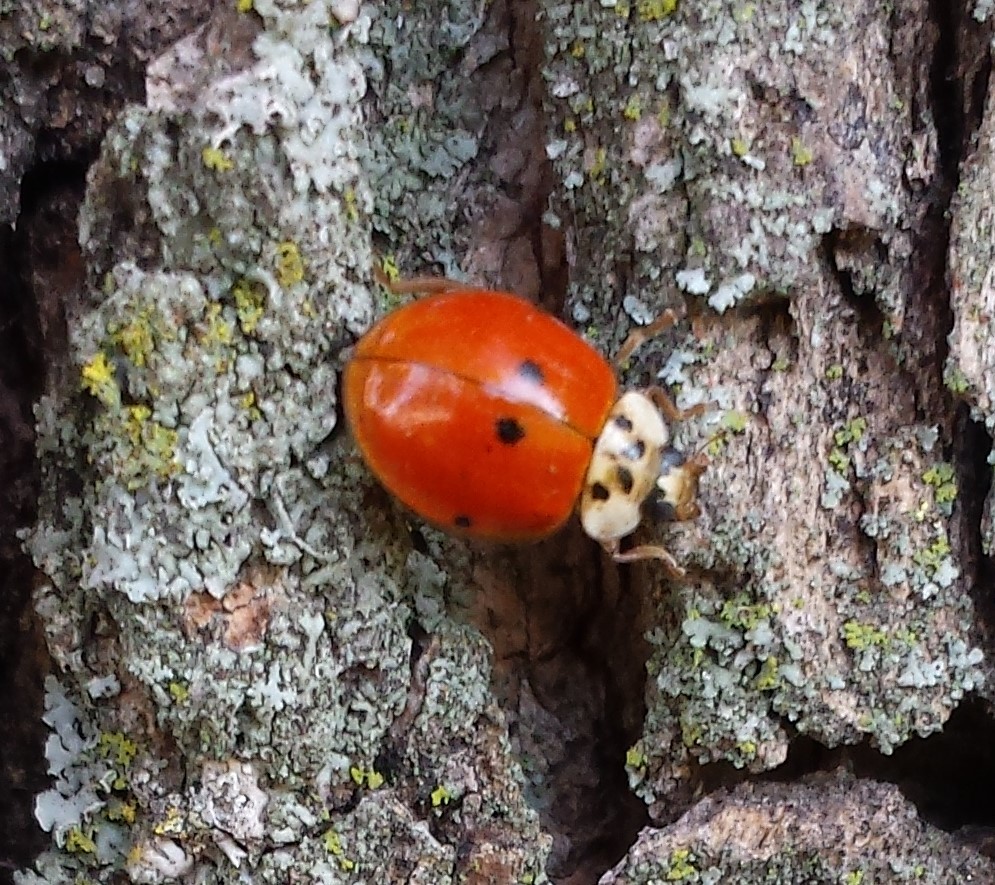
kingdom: Animalia
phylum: Arthropoda
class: Insecta
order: Coleoptera
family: Coccinellidae
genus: Harmonia
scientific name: Harmonia axyridis
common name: Harlequin ladybird
